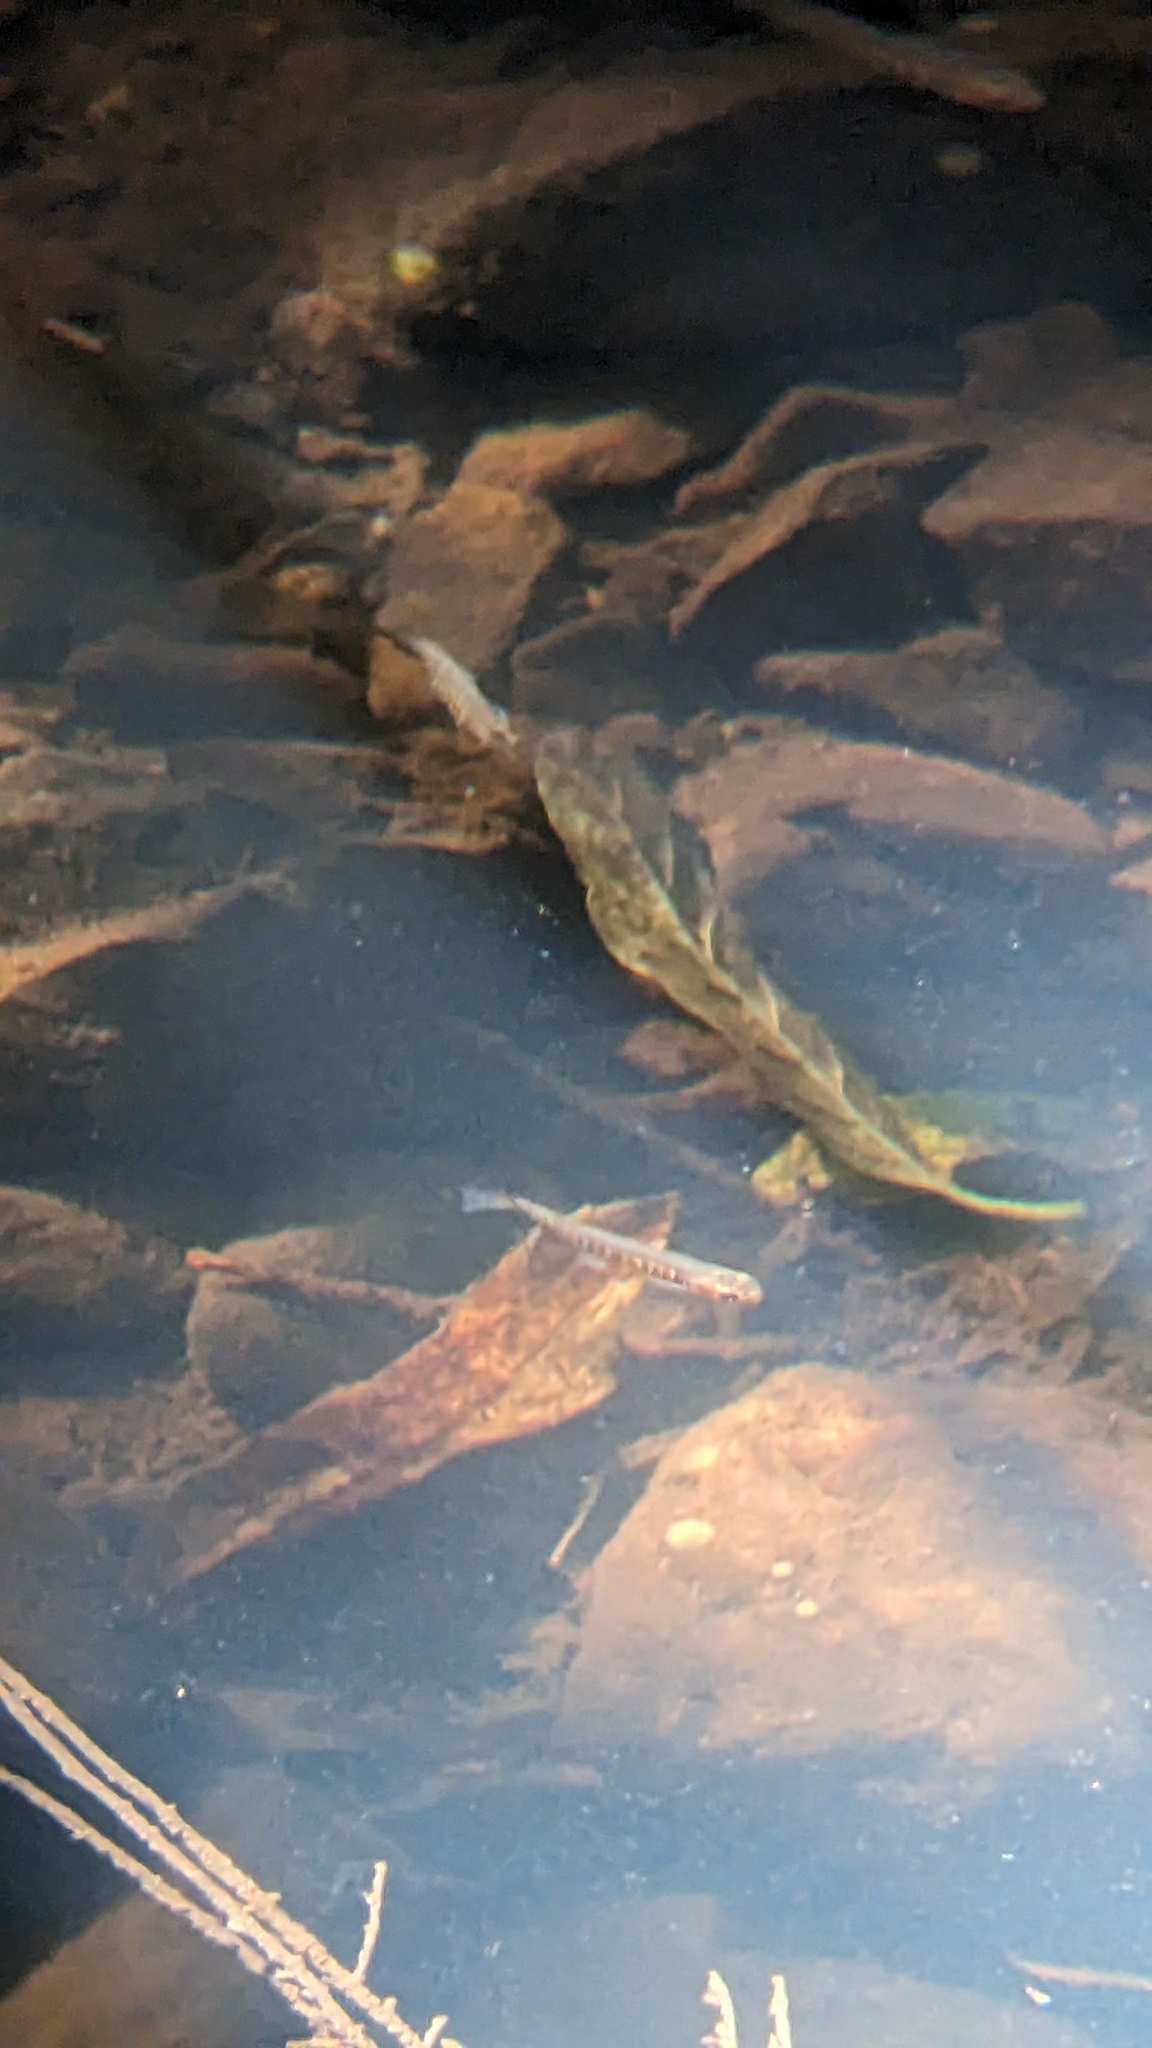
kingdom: Animalia
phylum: Chordata
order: Osmeriformes
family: Galaxiidae
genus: Galaxias
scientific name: Galaxias fasciatus
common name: Banded kokopu
